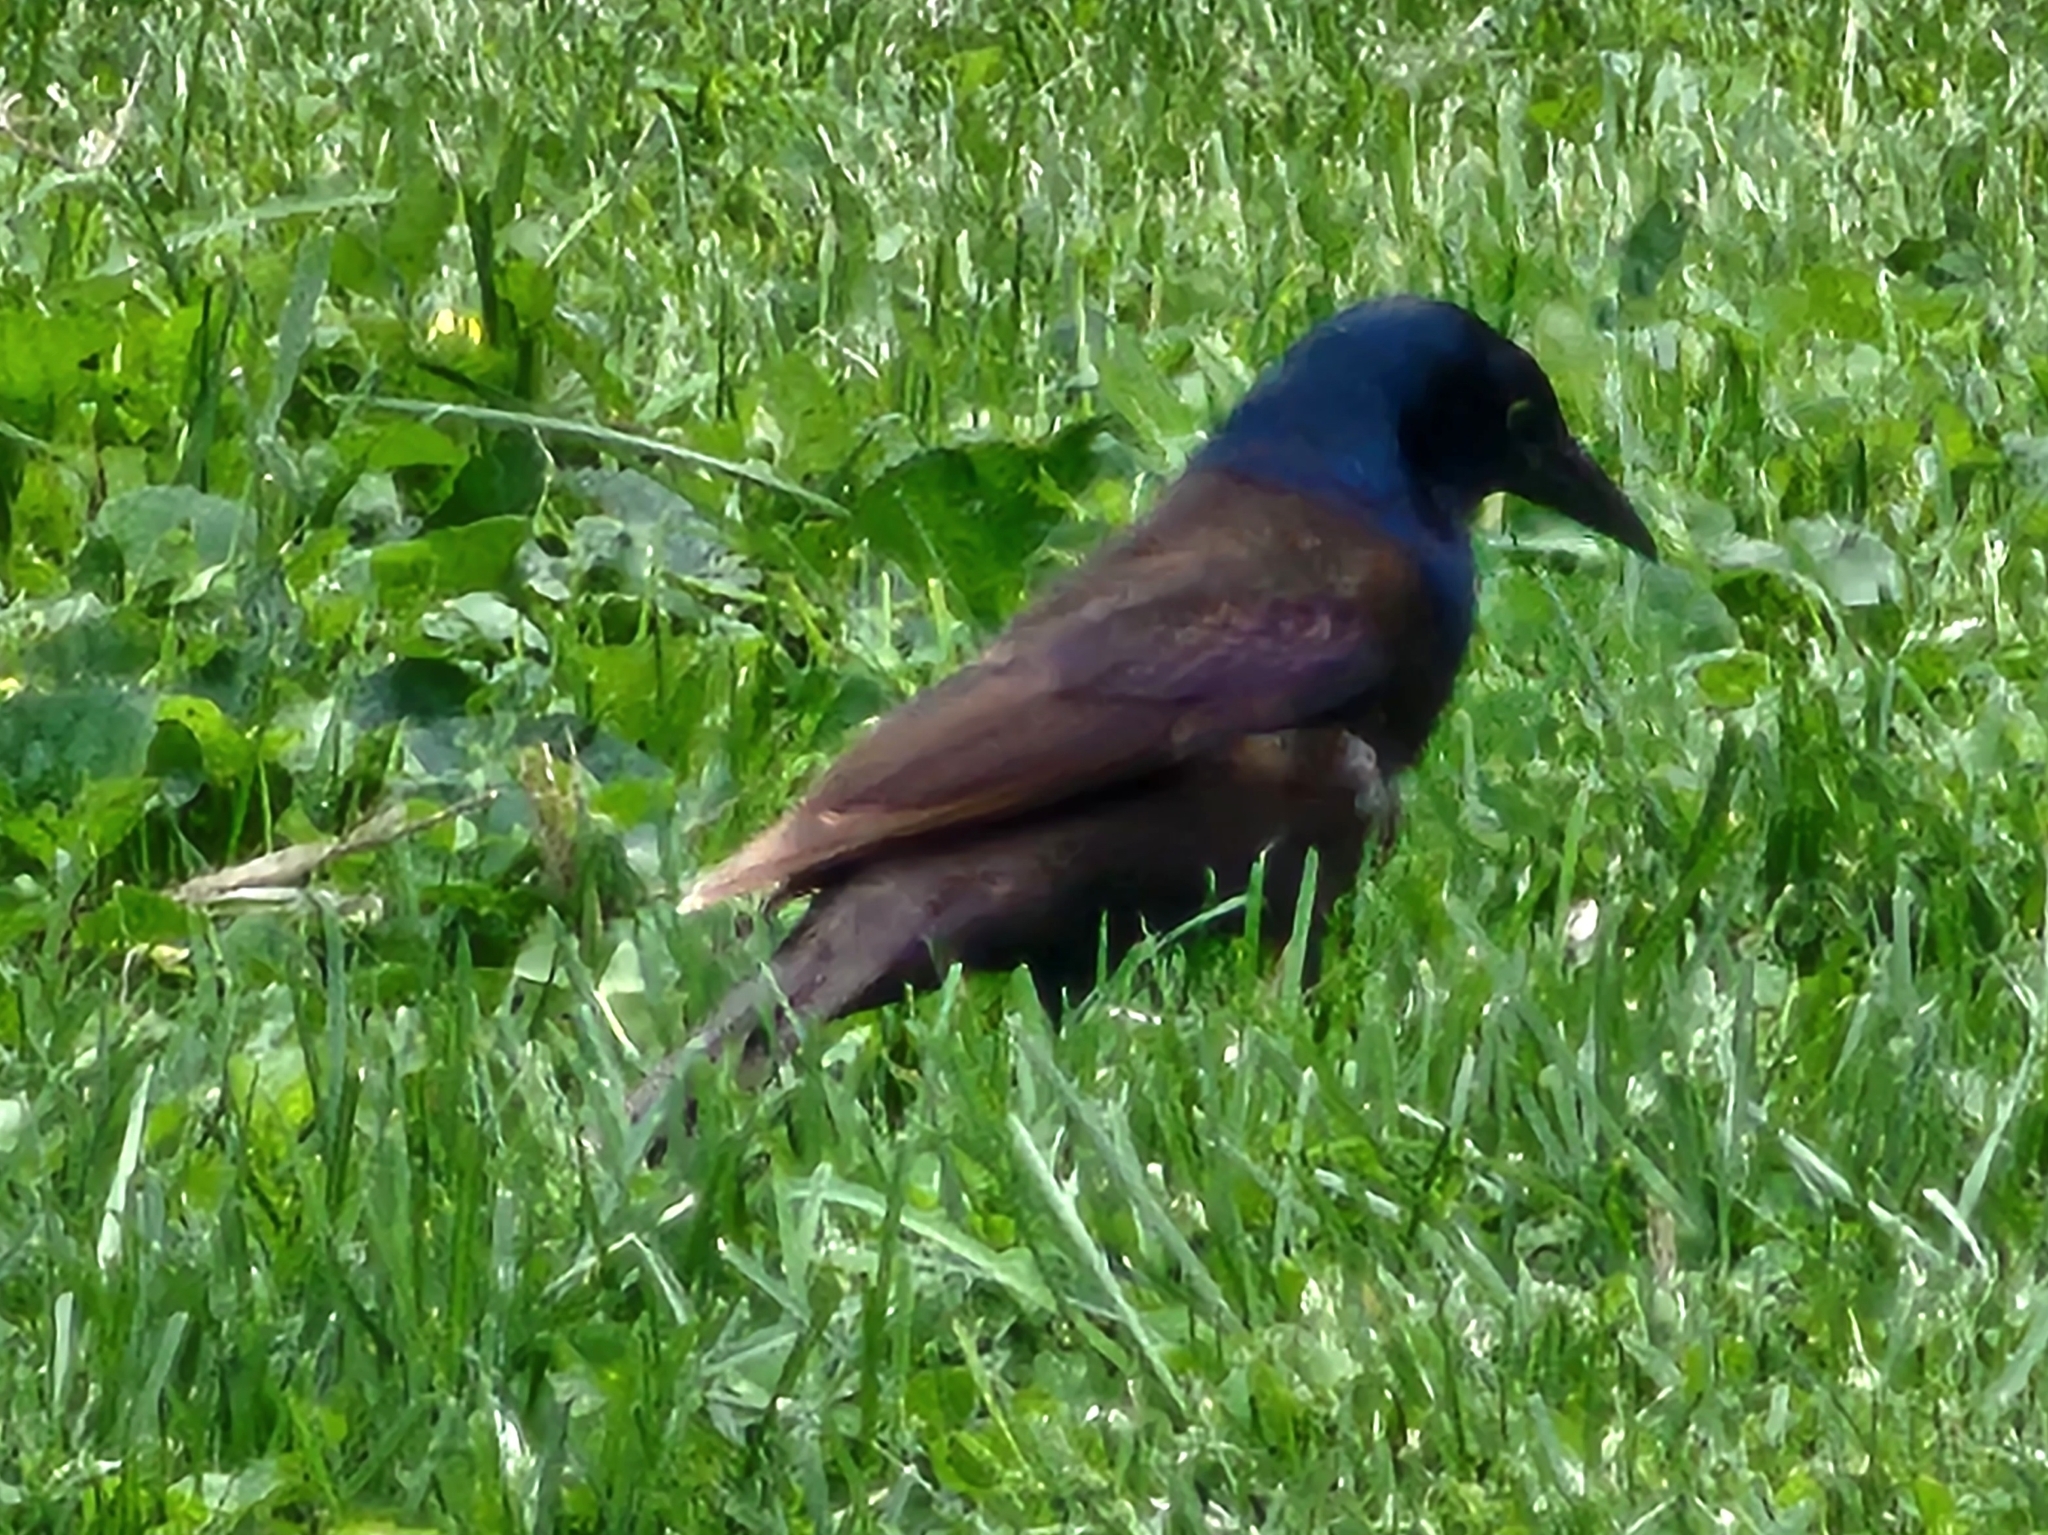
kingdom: Animalia
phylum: Chordata
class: Aves
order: Passeriformes
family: Icteridae
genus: Quiscalus
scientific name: Quiscalus quiscula
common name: Common grackle
